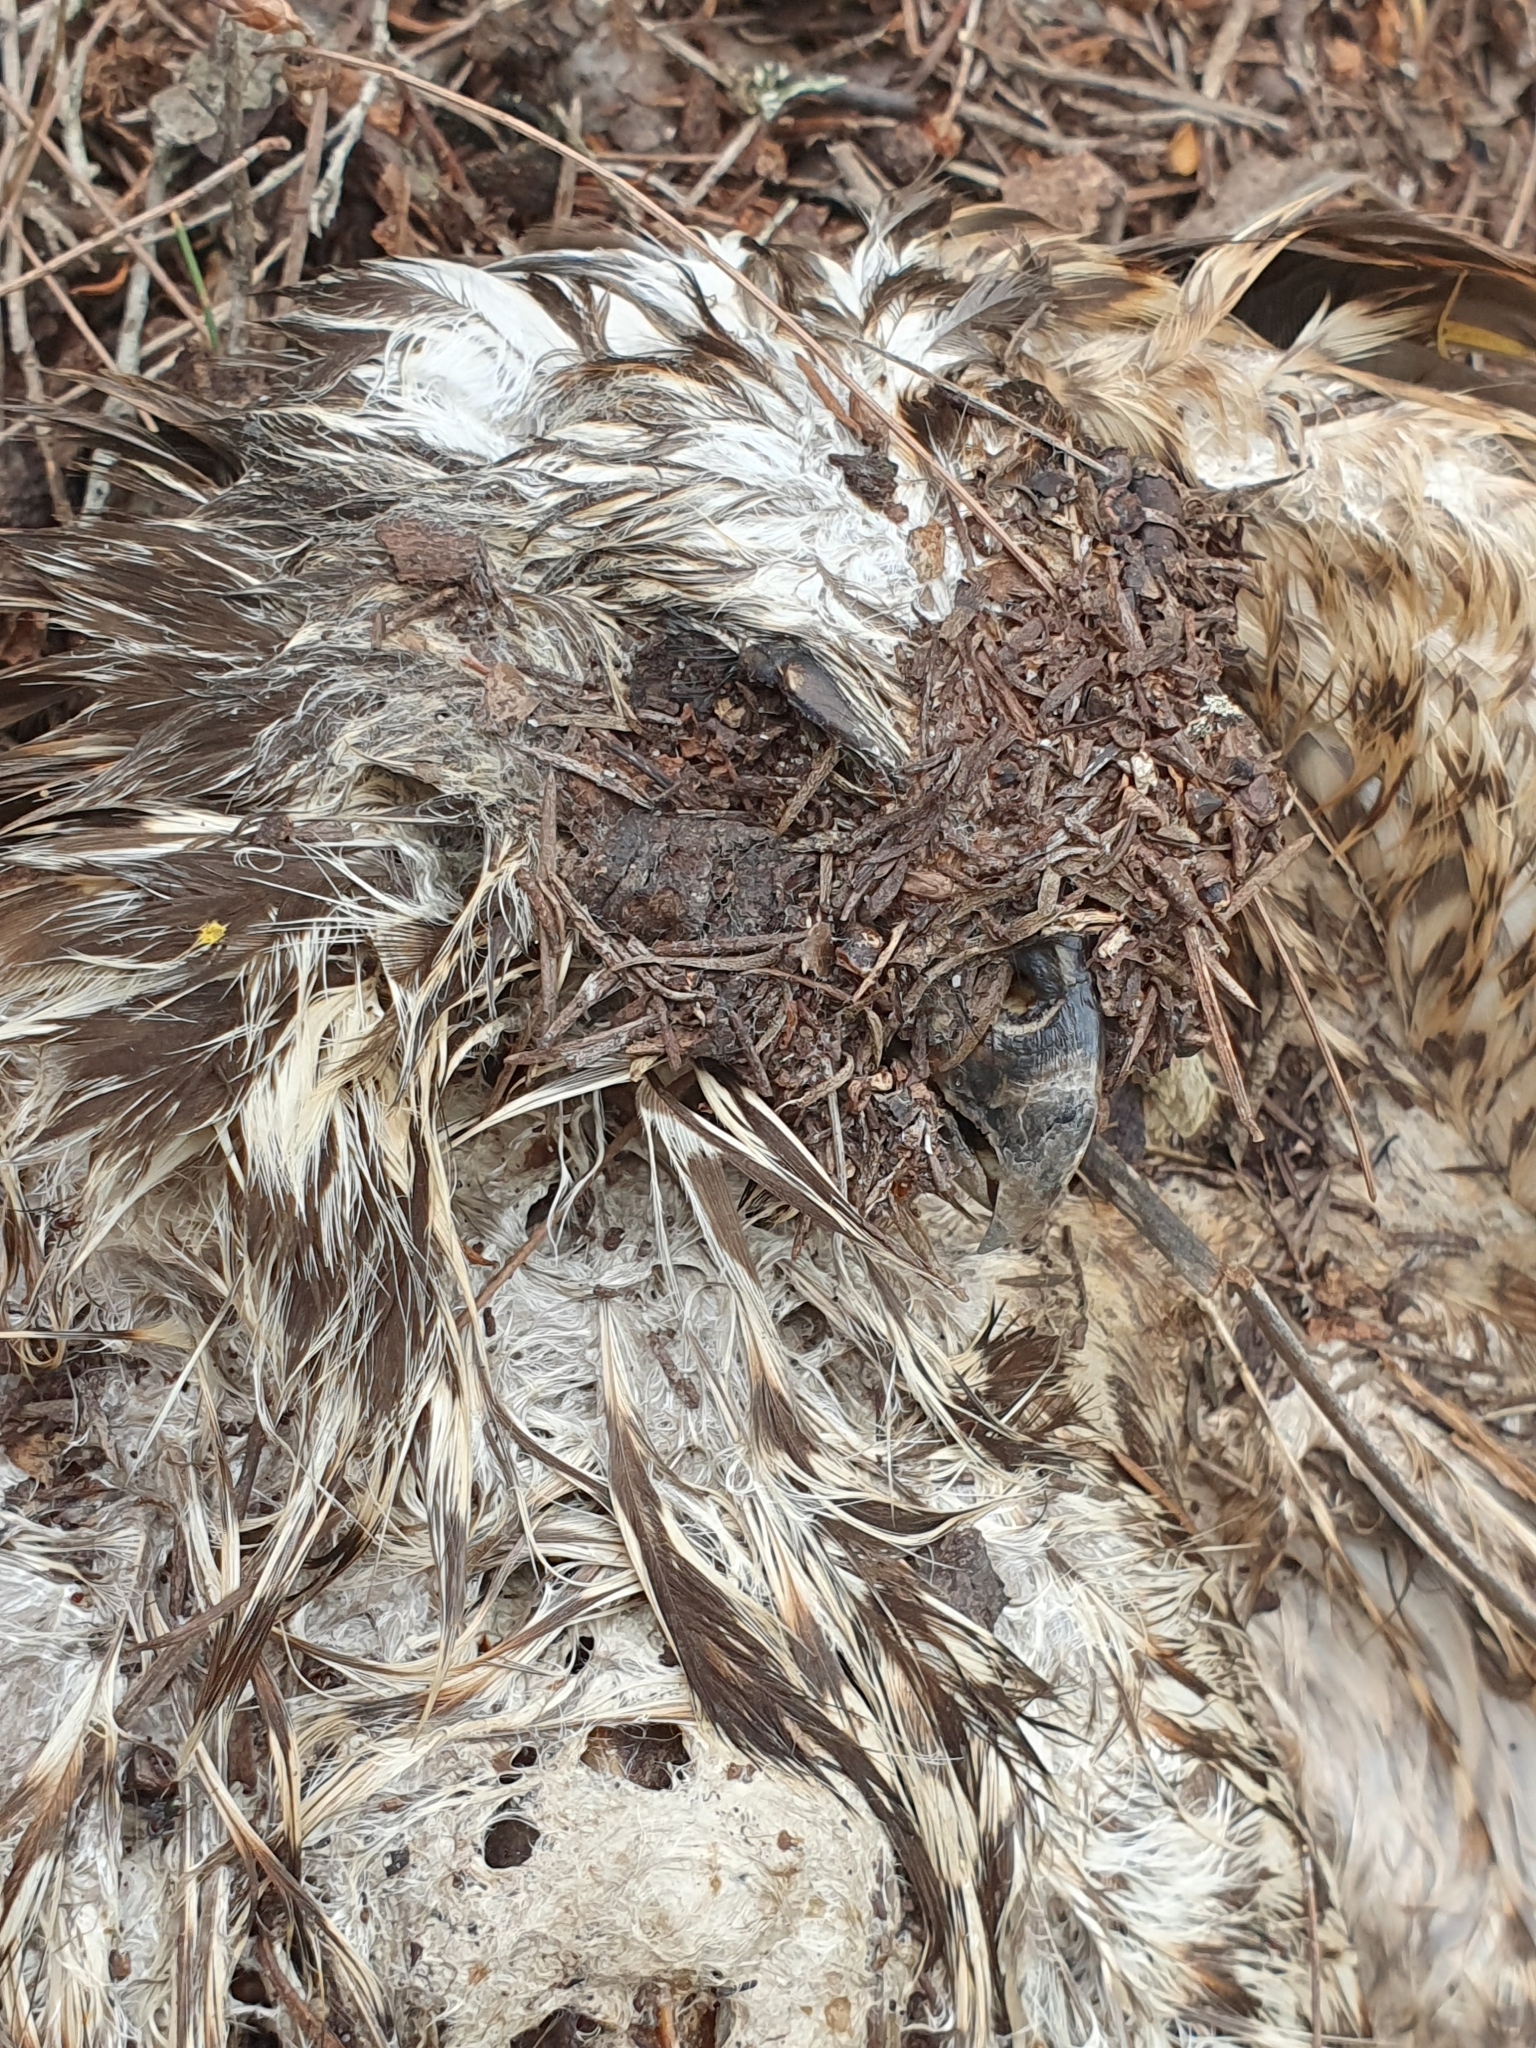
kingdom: Animalia
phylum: Chordata
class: Aves
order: Accipitriformes
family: Accipitridae
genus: Accipiter
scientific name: Accipiter cirrocephalus
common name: Collared sparrowhawk
